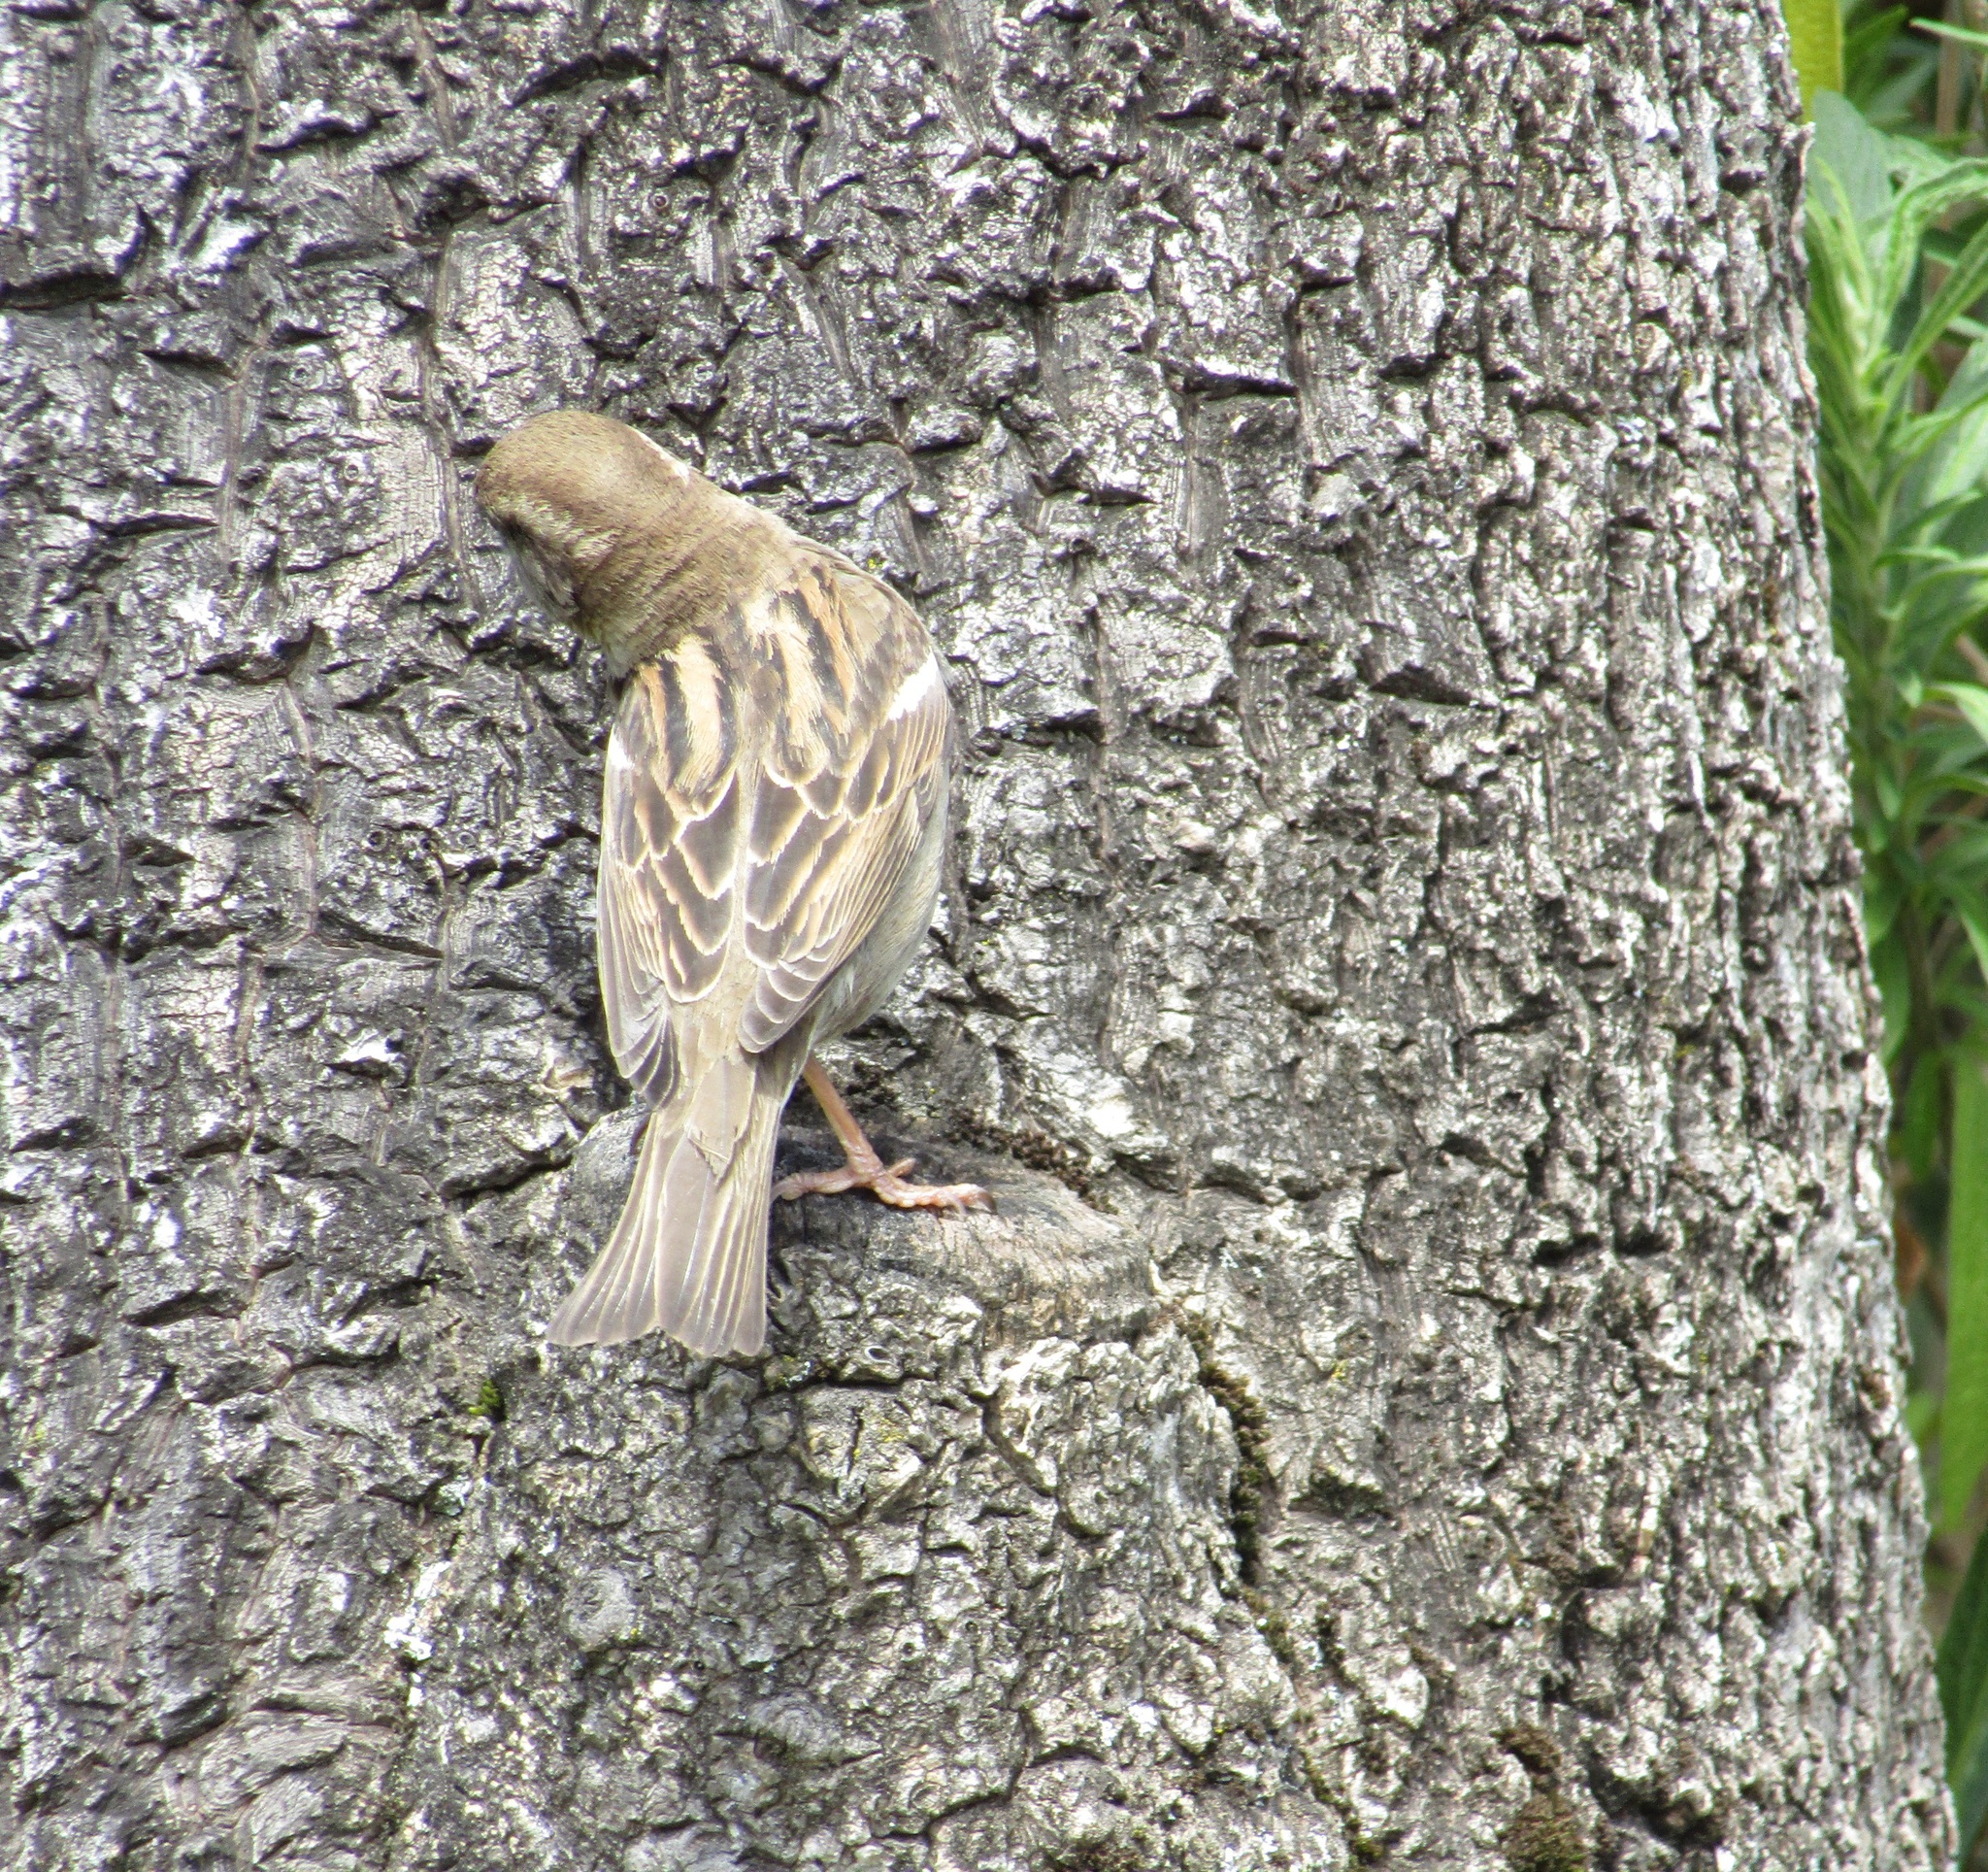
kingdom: Animalia
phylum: Chordata
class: Aves
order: Passeriformes
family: Passeridae
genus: Passer
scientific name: Passer domesticus
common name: House sparrow
